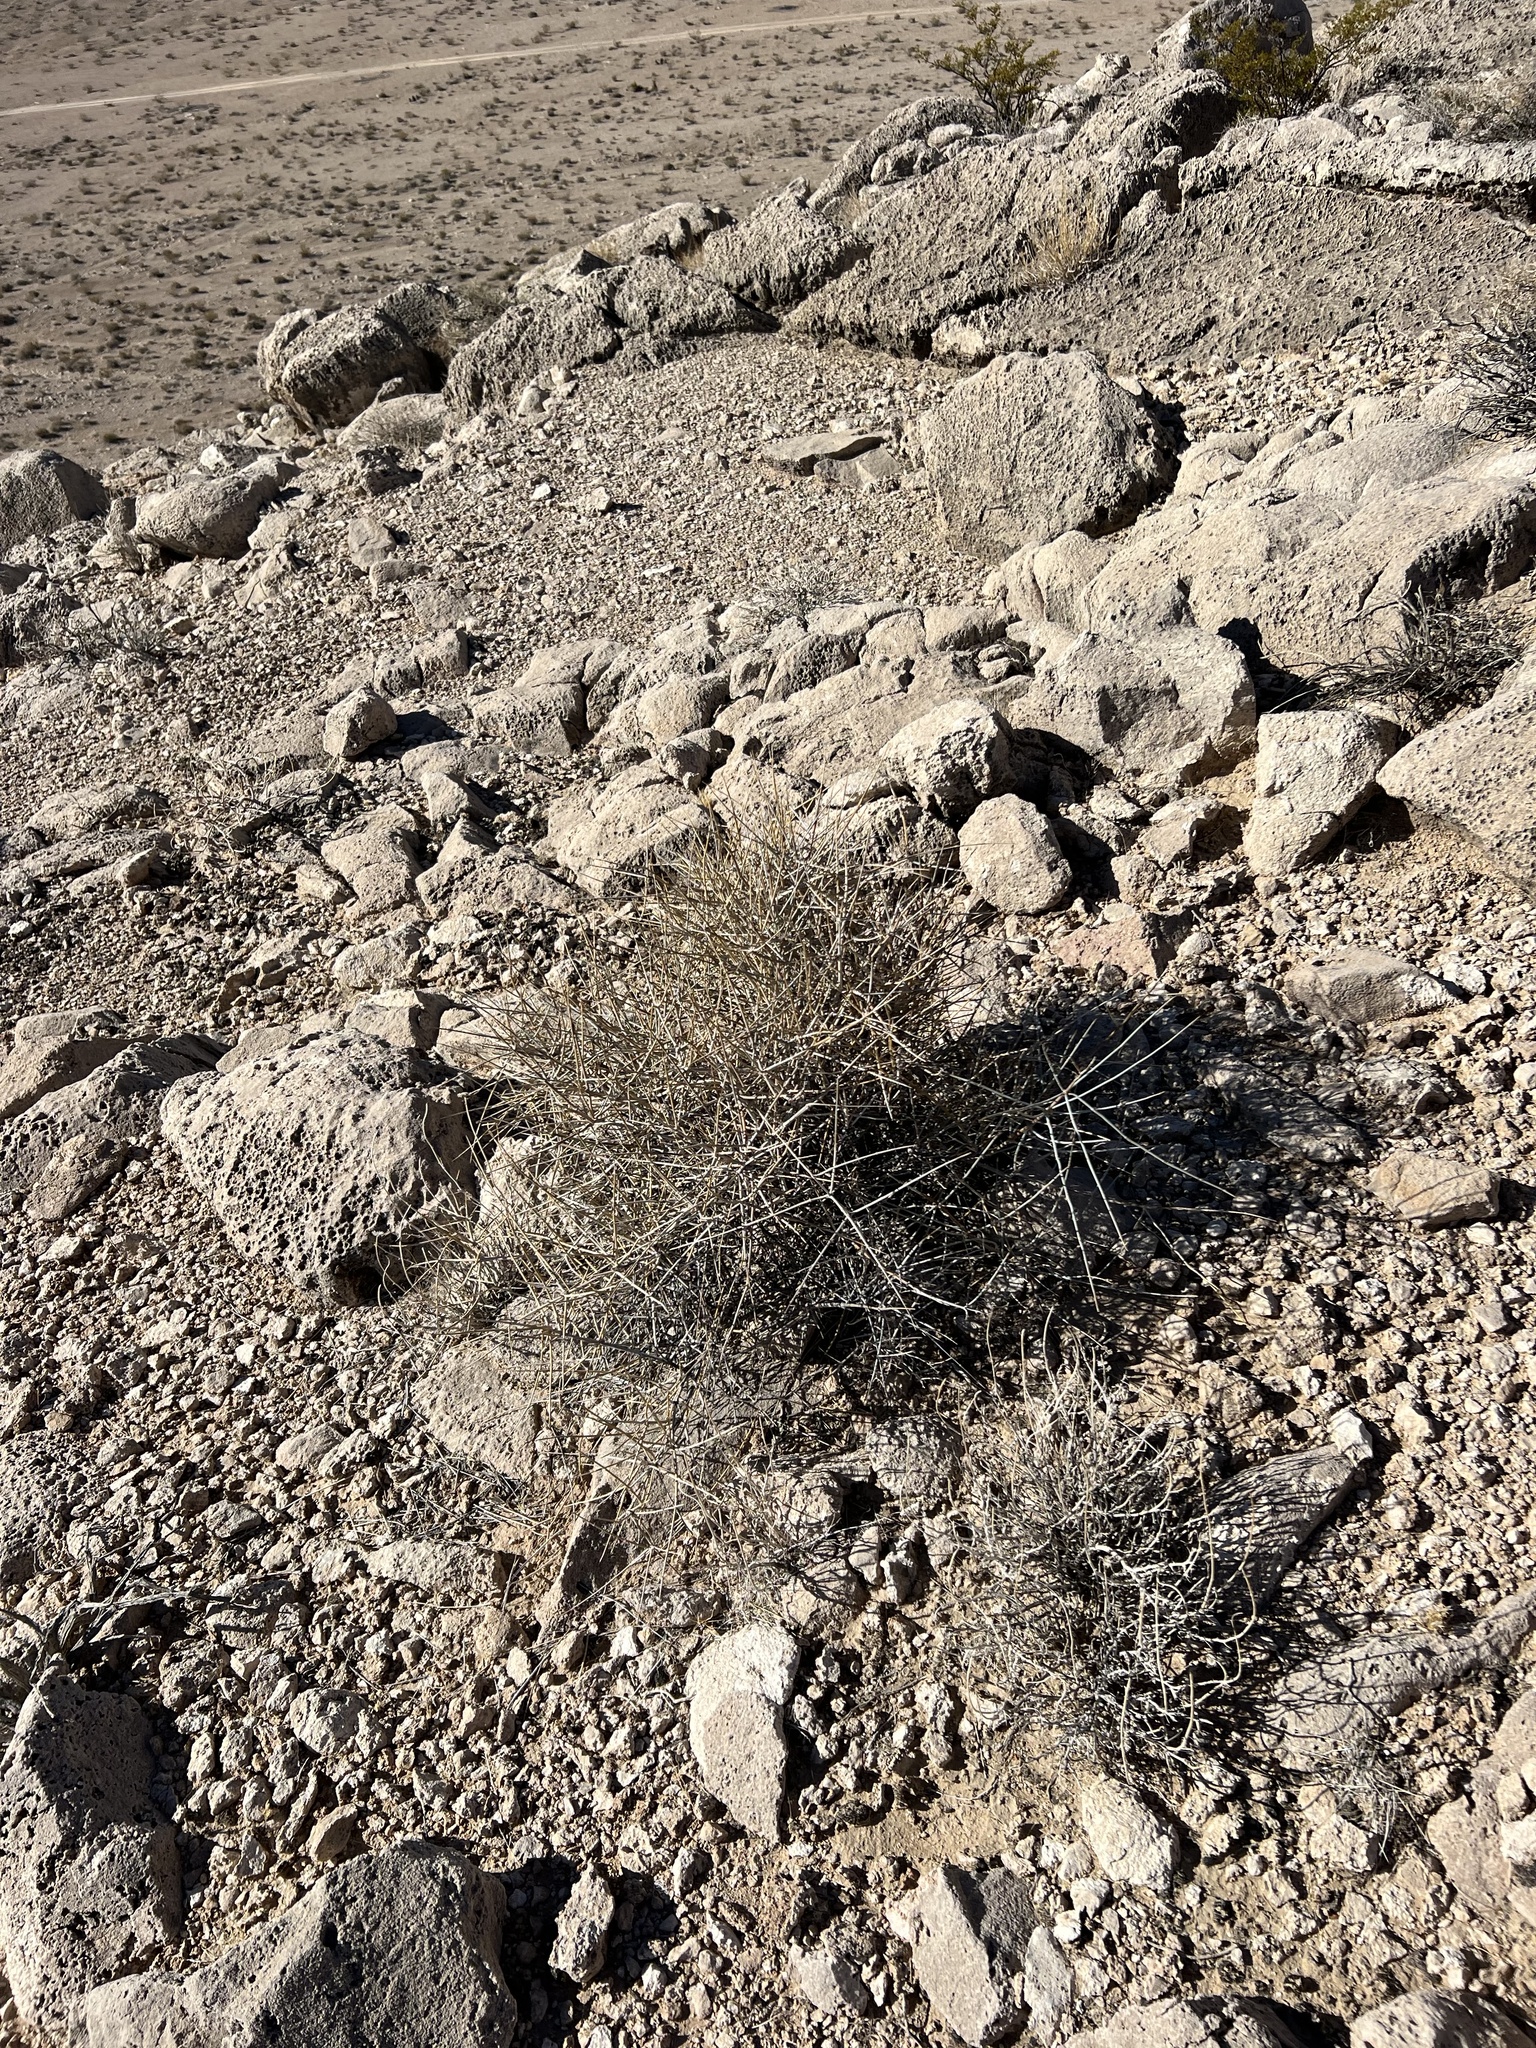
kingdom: Plantae
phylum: Tracheophyta
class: Gnetopsida
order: Ephedrales
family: Ephedraceae
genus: Ephedra
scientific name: Ephedra nevadensis
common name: Gray ephedra
